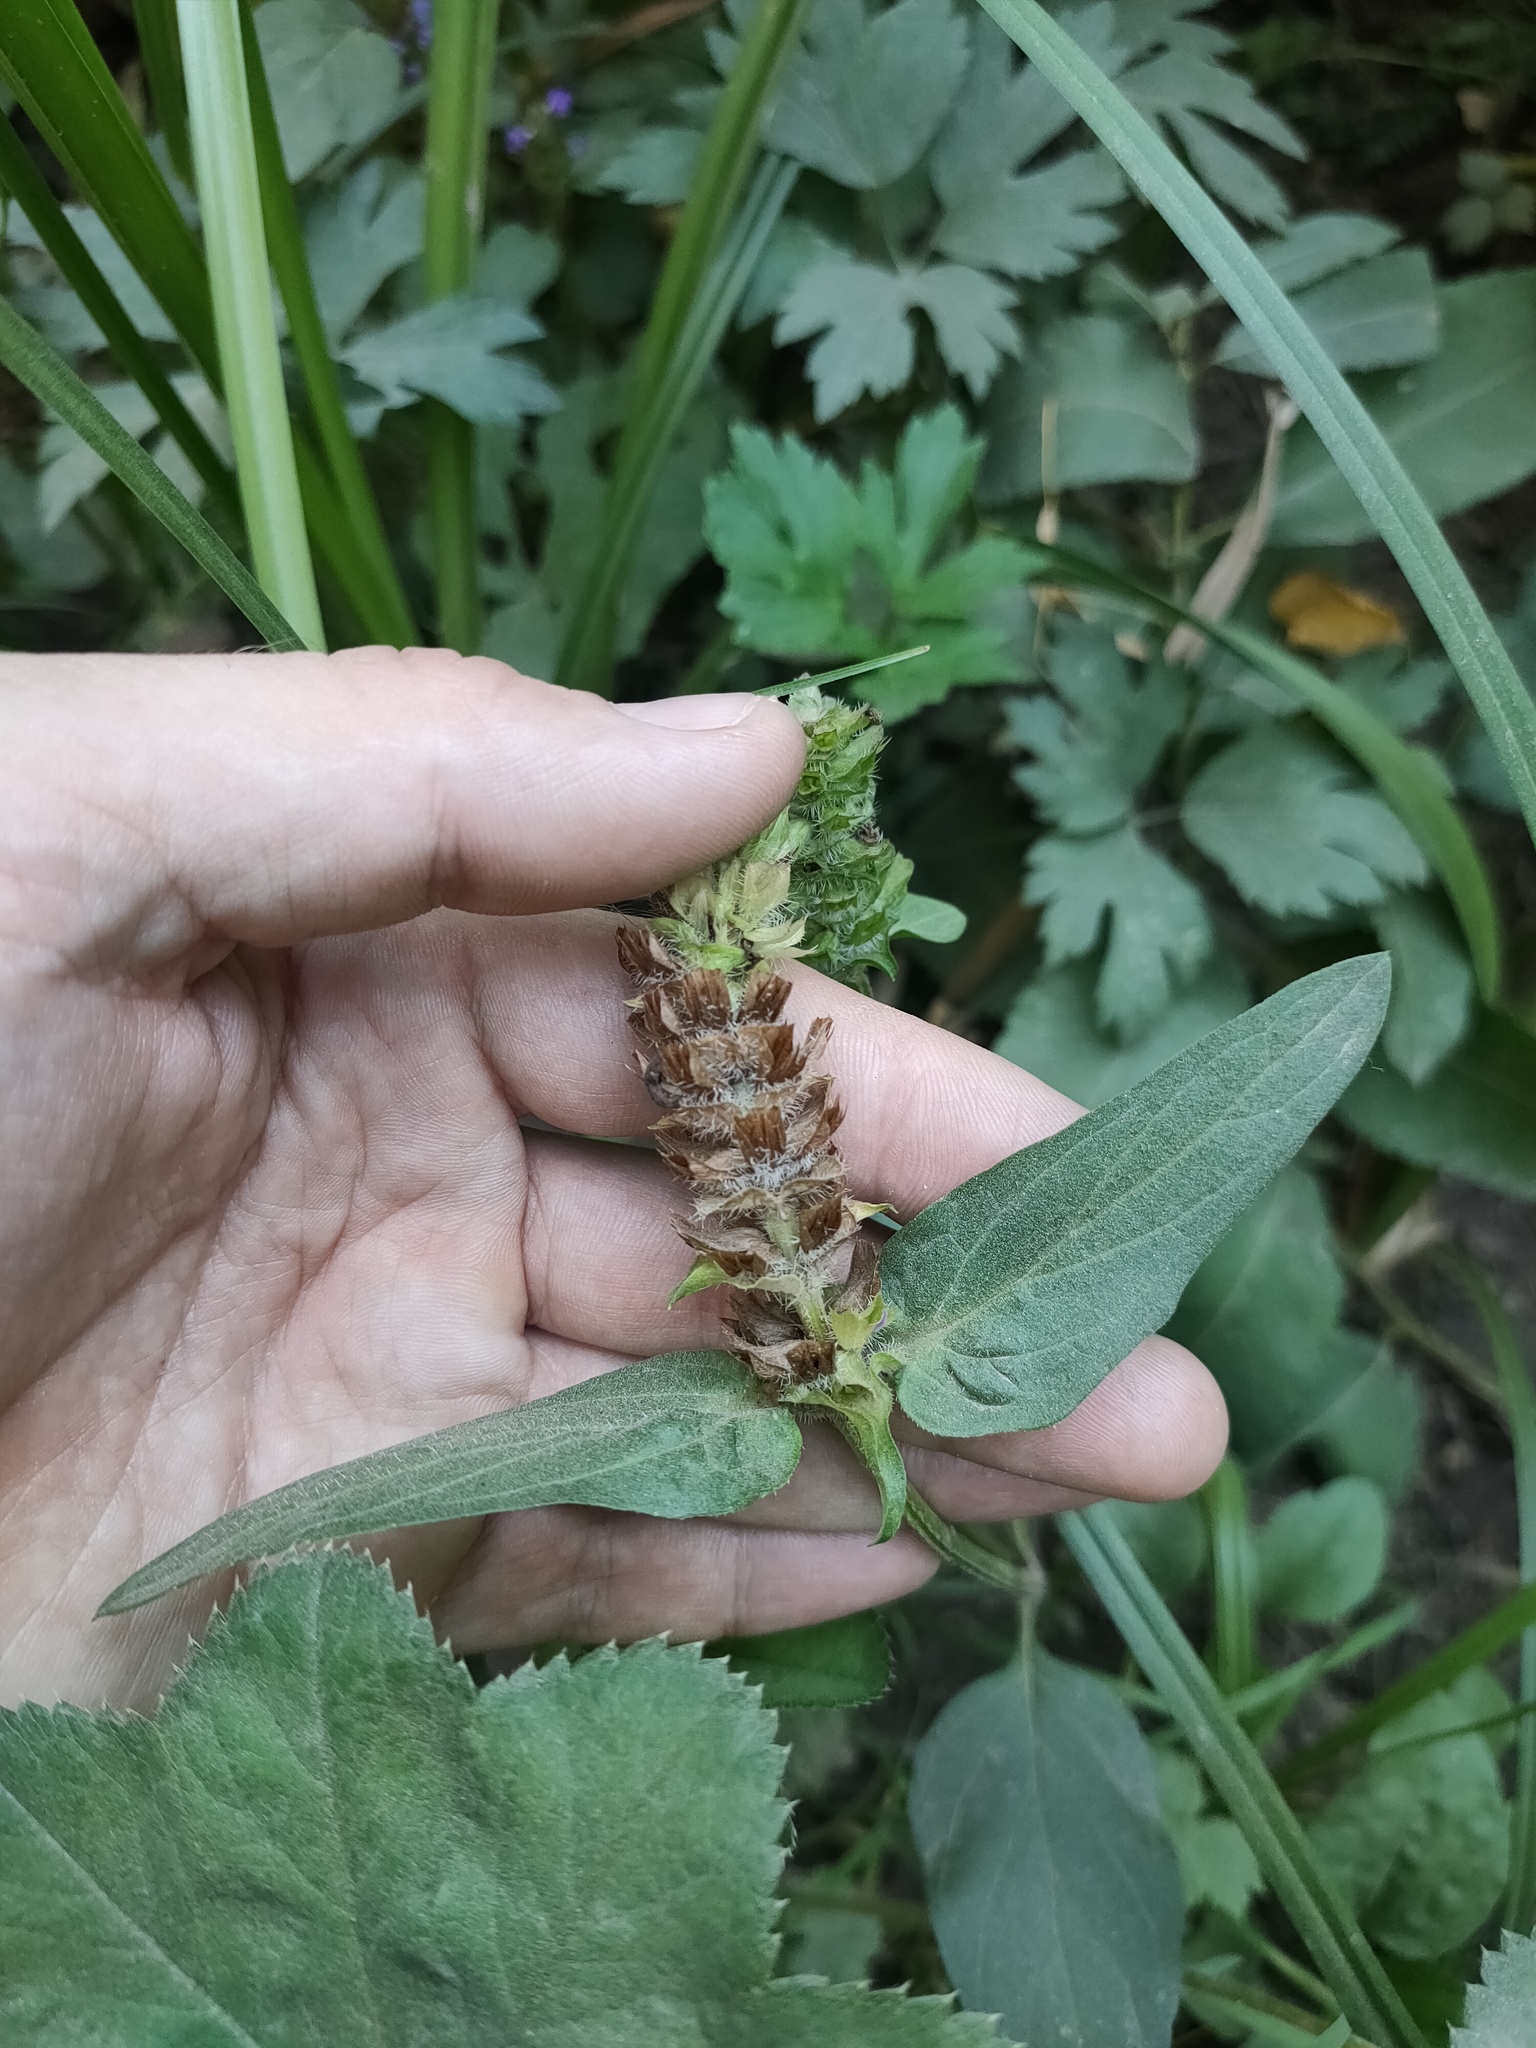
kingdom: Plantae
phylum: Tracheophyta
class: Magnoliopsida
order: Lamiales
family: Lamiaceae
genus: Prunella
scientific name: Prunella vulgaris
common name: Heal-all
